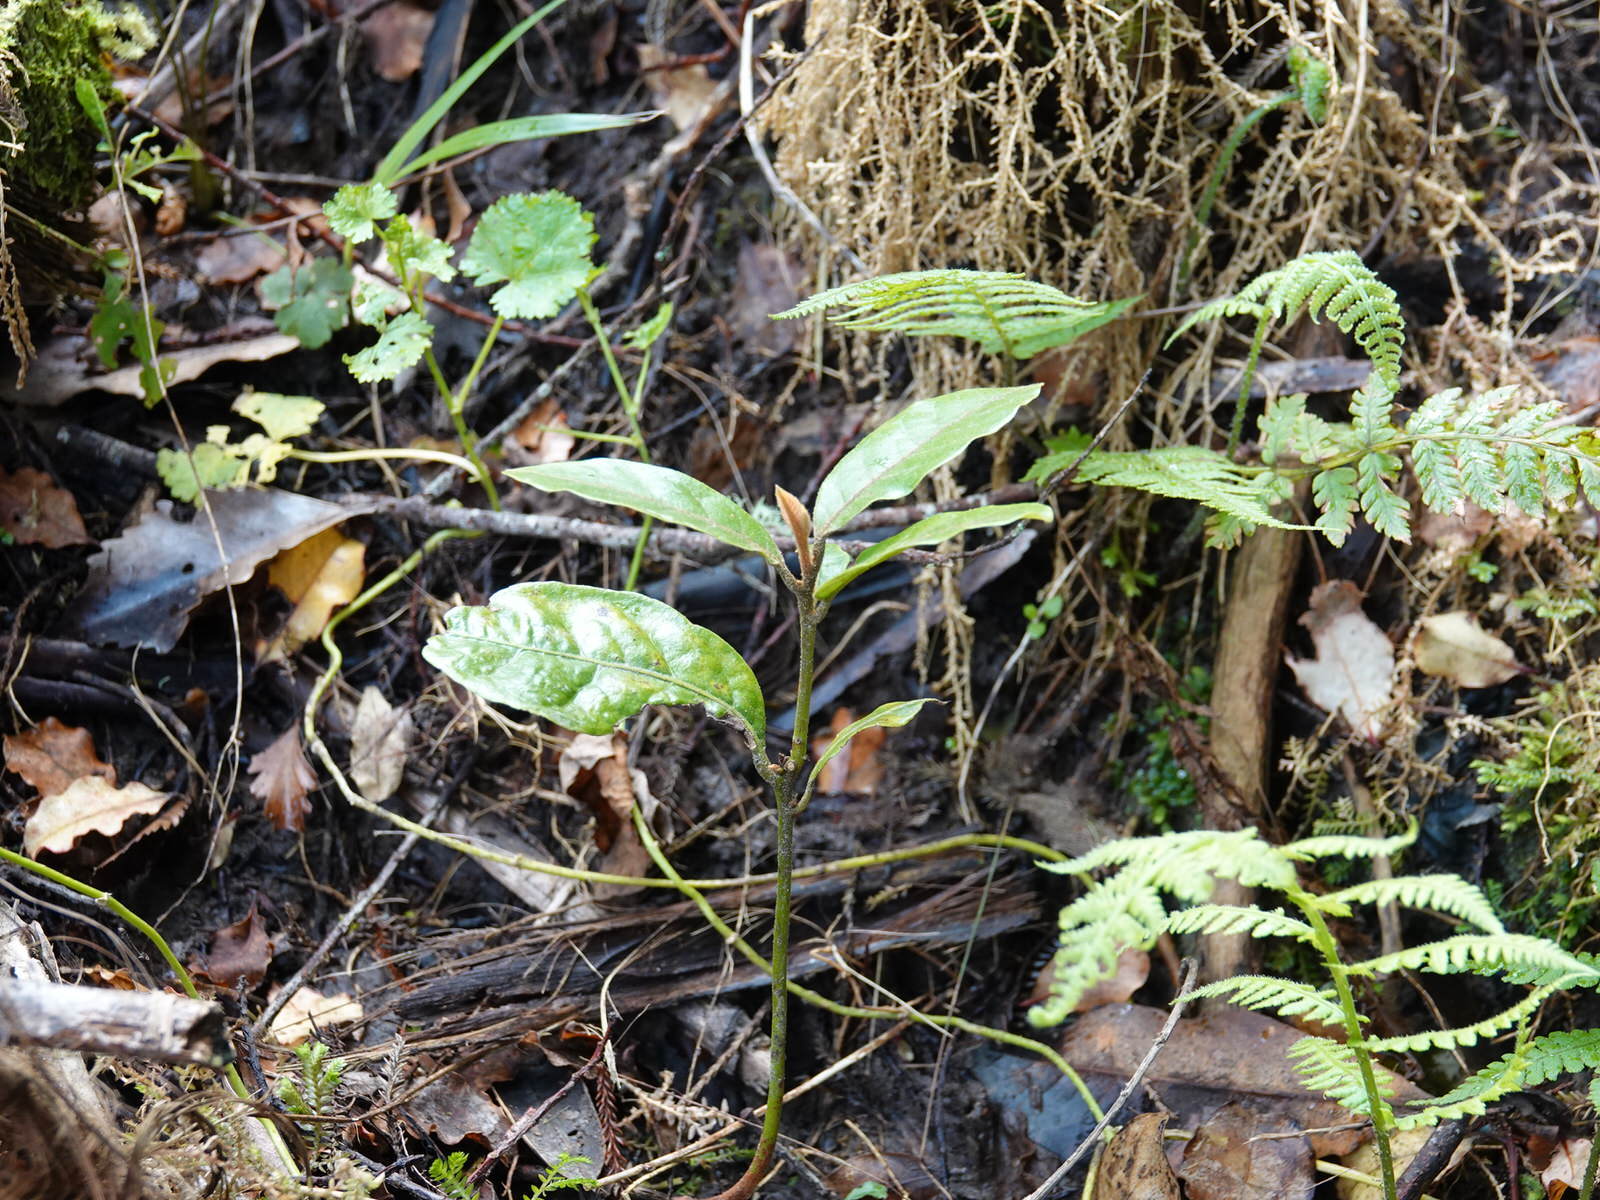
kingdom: Plantae
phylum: Tracheophyta
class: Magnoliopsida
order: Laurales
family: Lauraceae
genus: Beilschmiedia
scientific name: Beilschmiedia tarairi
